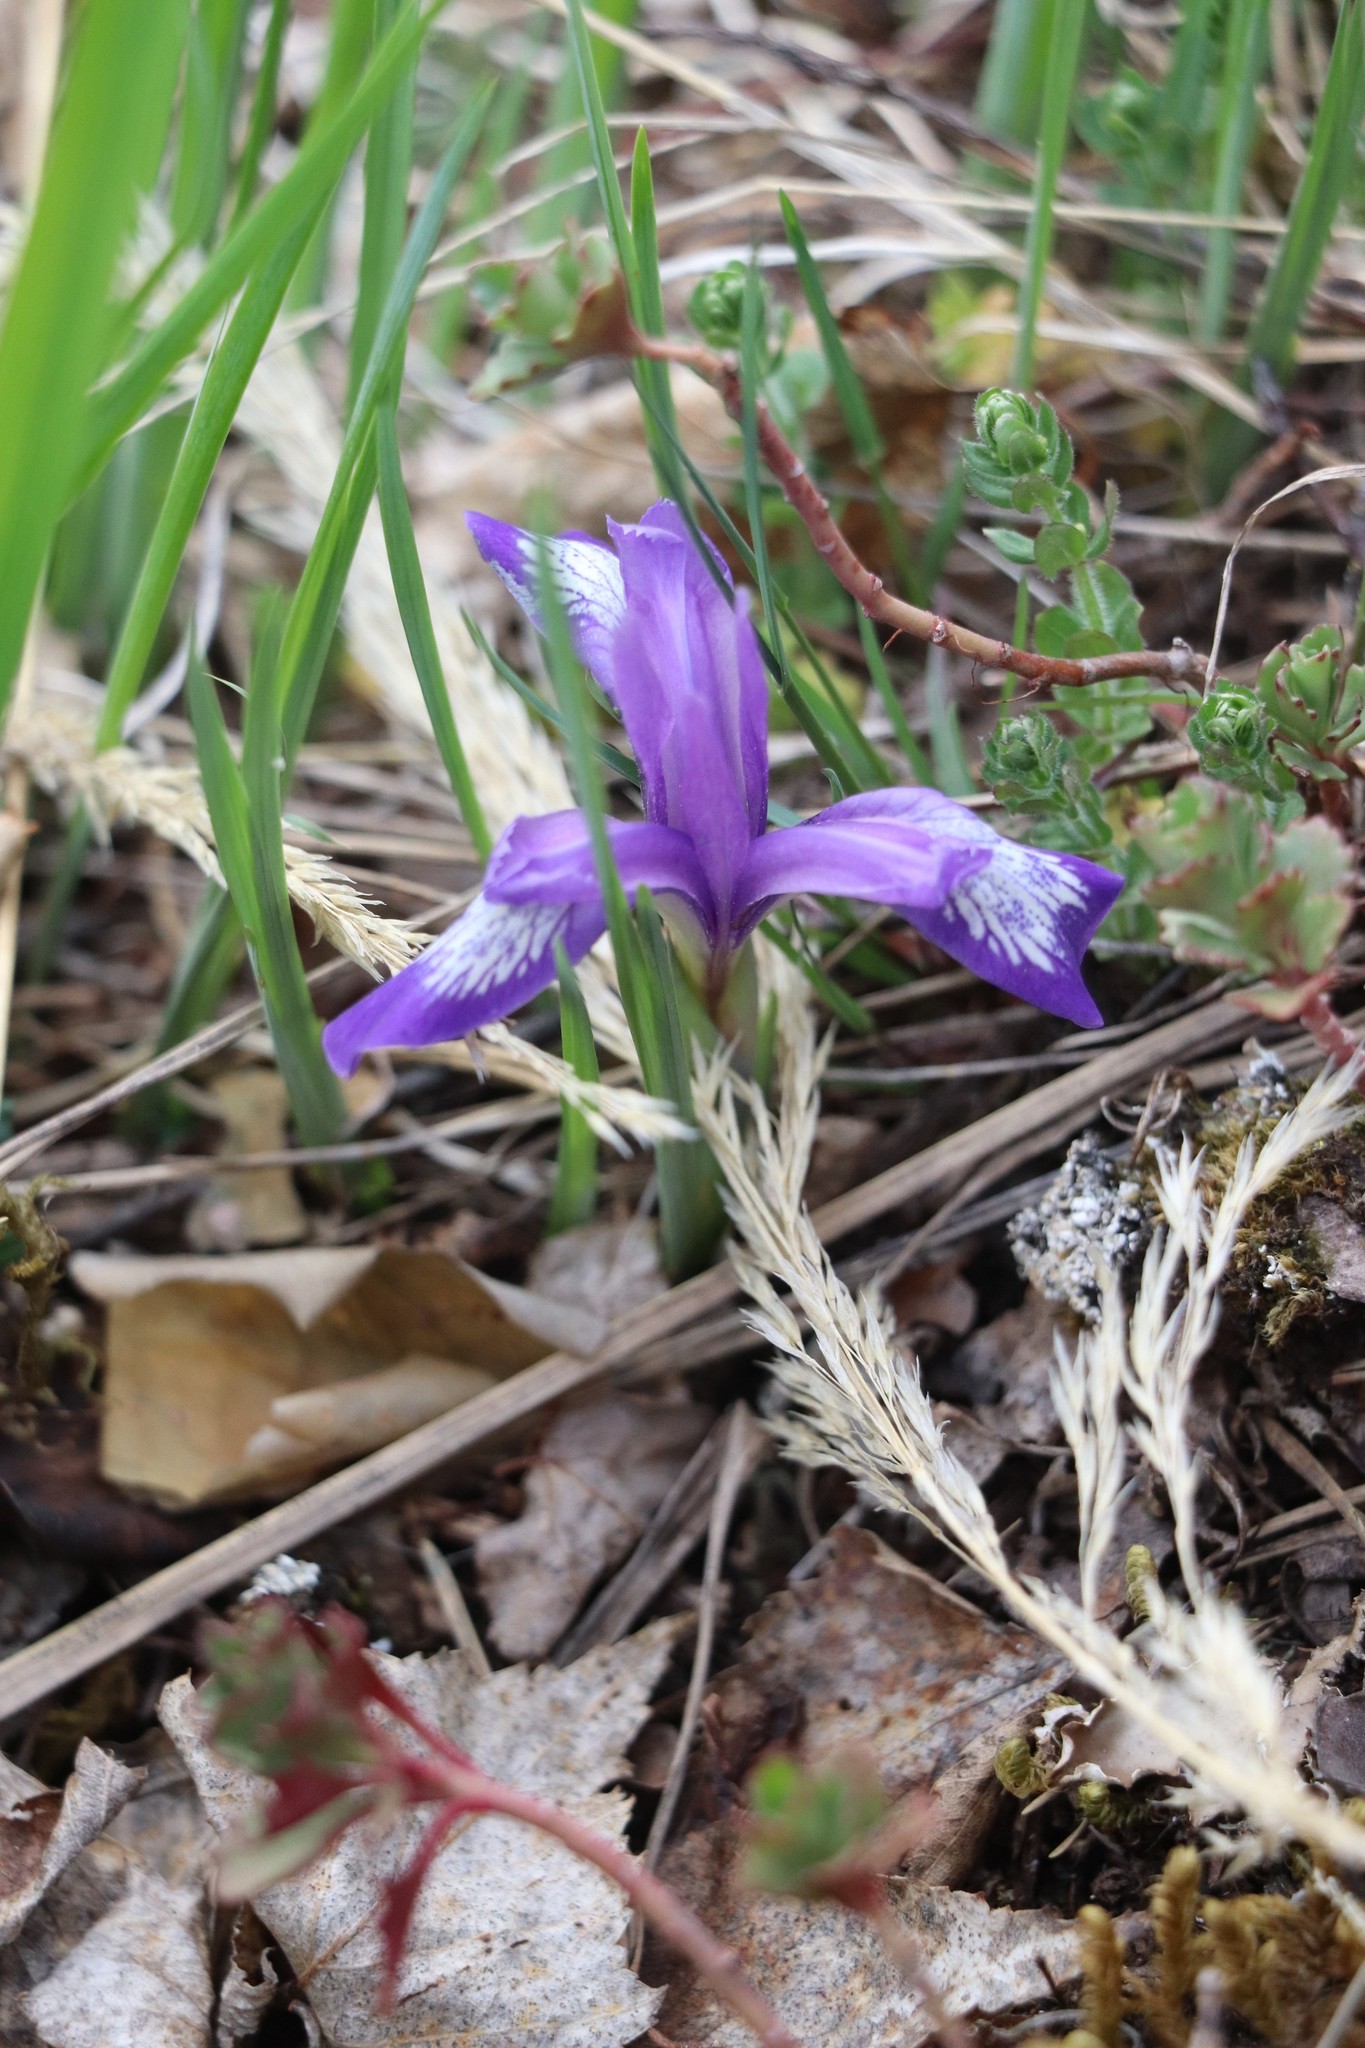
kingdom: Plantae
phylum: Tracheophyta
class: Liliopsida
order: Asparagales
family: Iridaceae
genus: Iris
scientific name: Iris ruthenica
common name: Purple-bract iris
